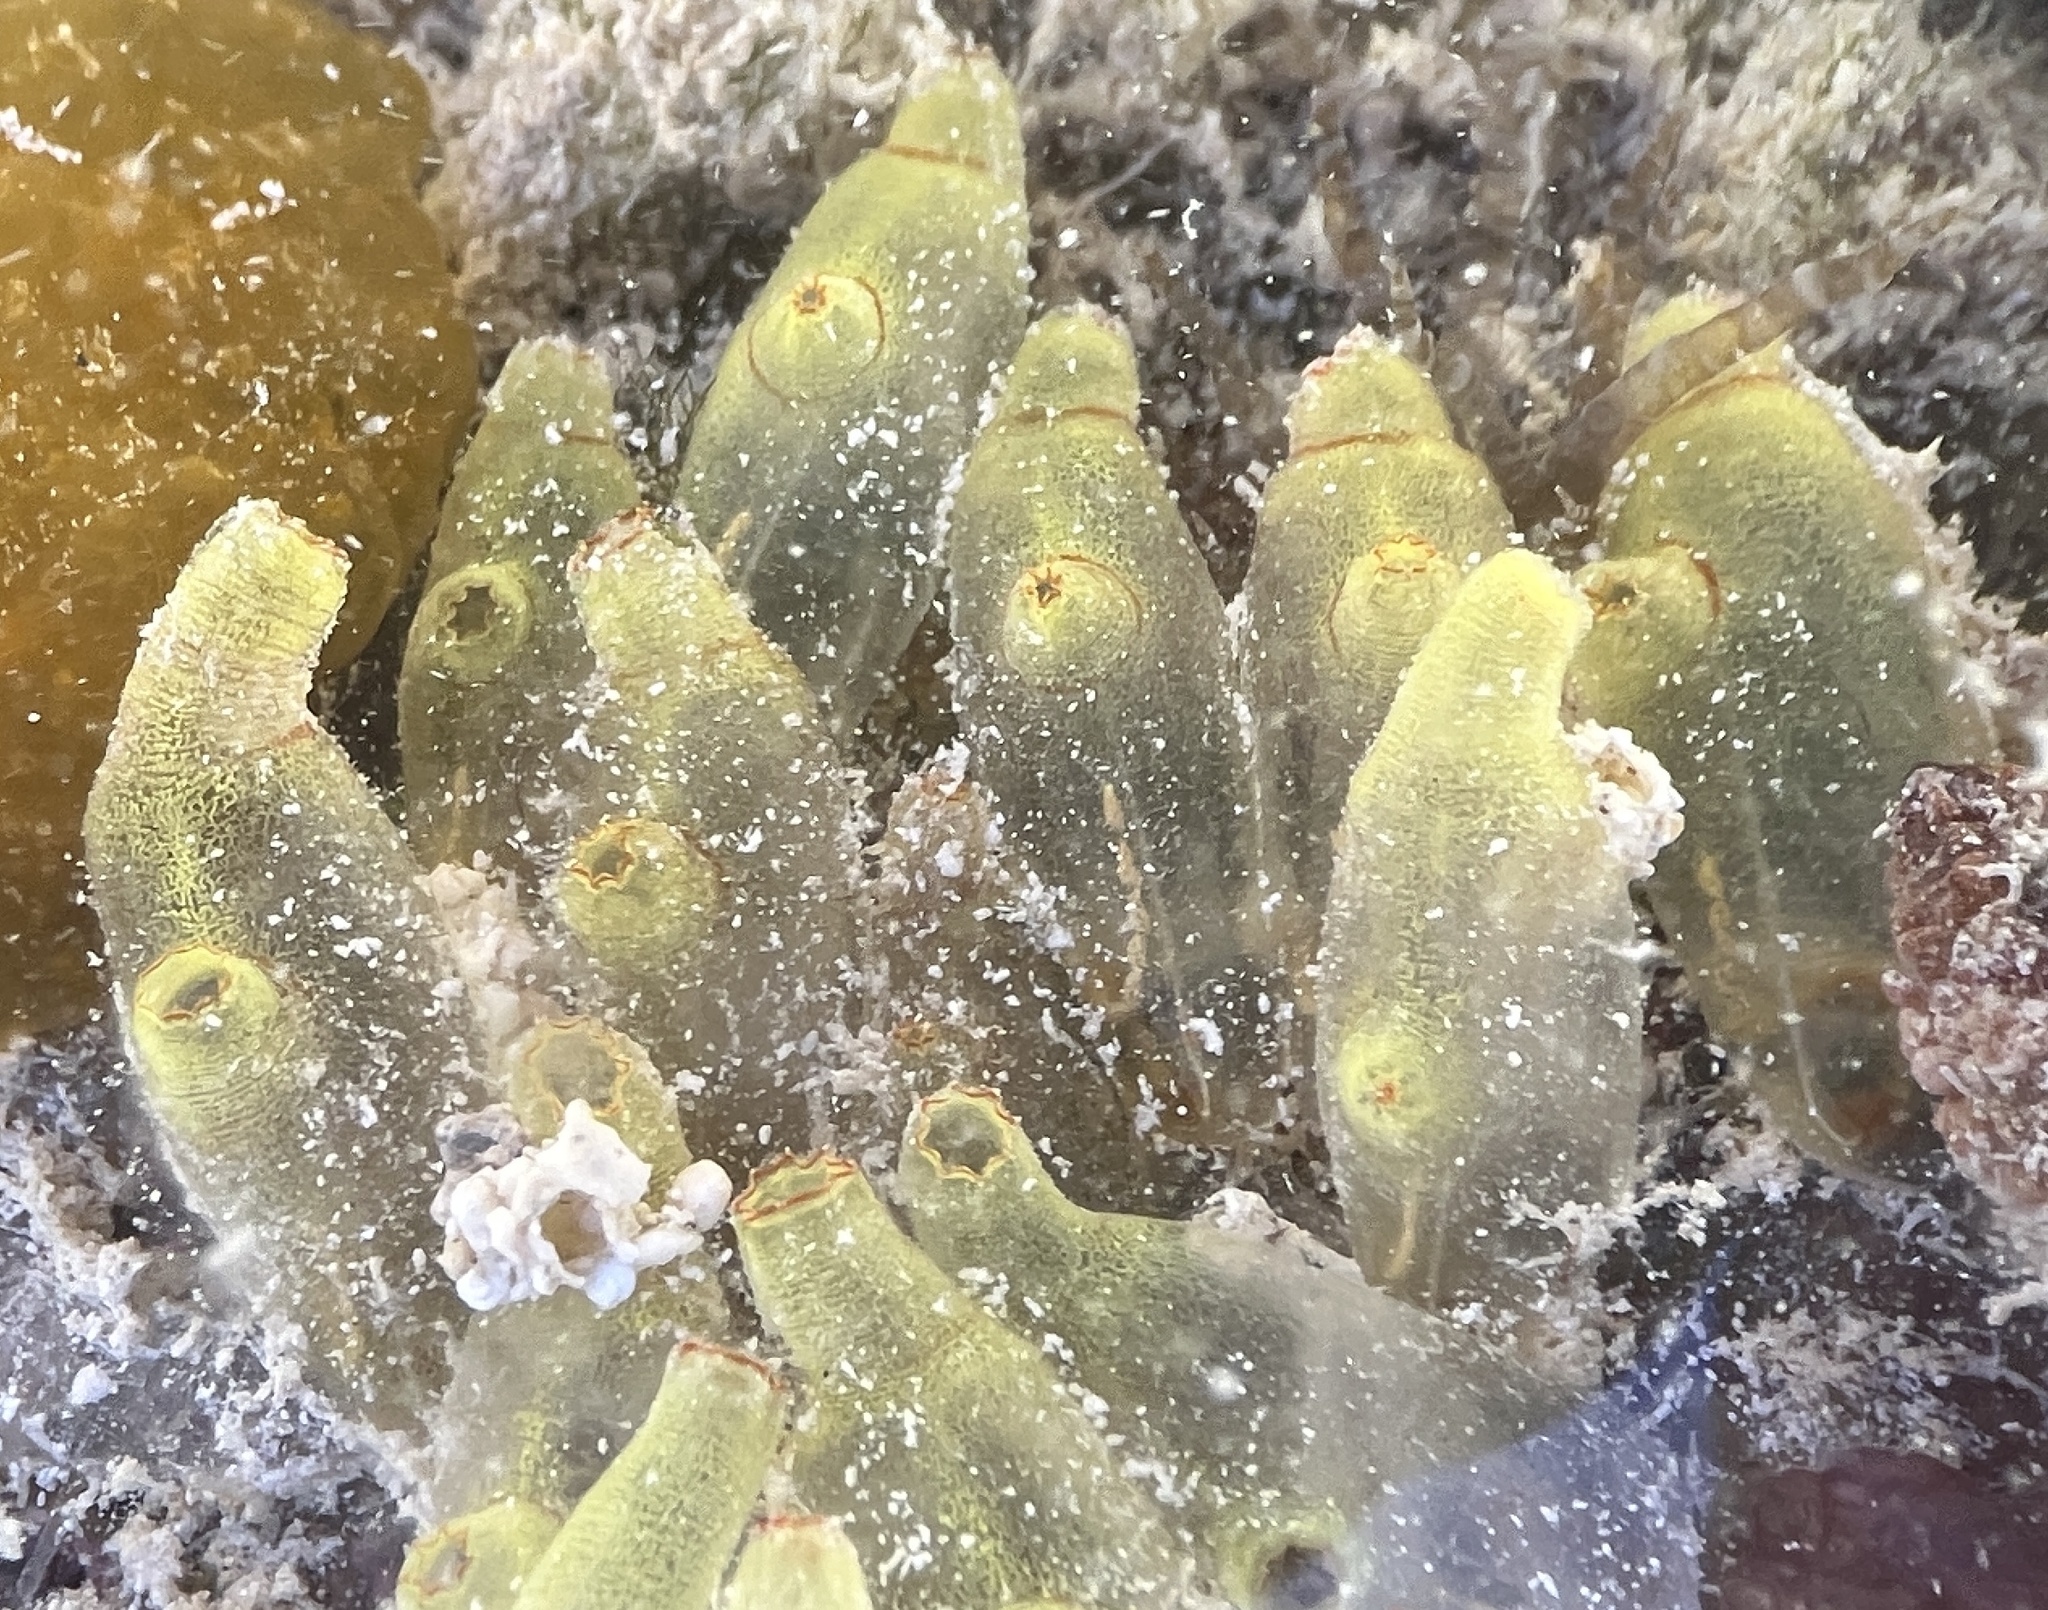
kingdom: Animalia
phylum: Chordata
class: Ascidiacea
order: Phlebobranchia
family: Perophoridae
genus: Ecteinascidia
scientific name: Ecteinascidia conklini
